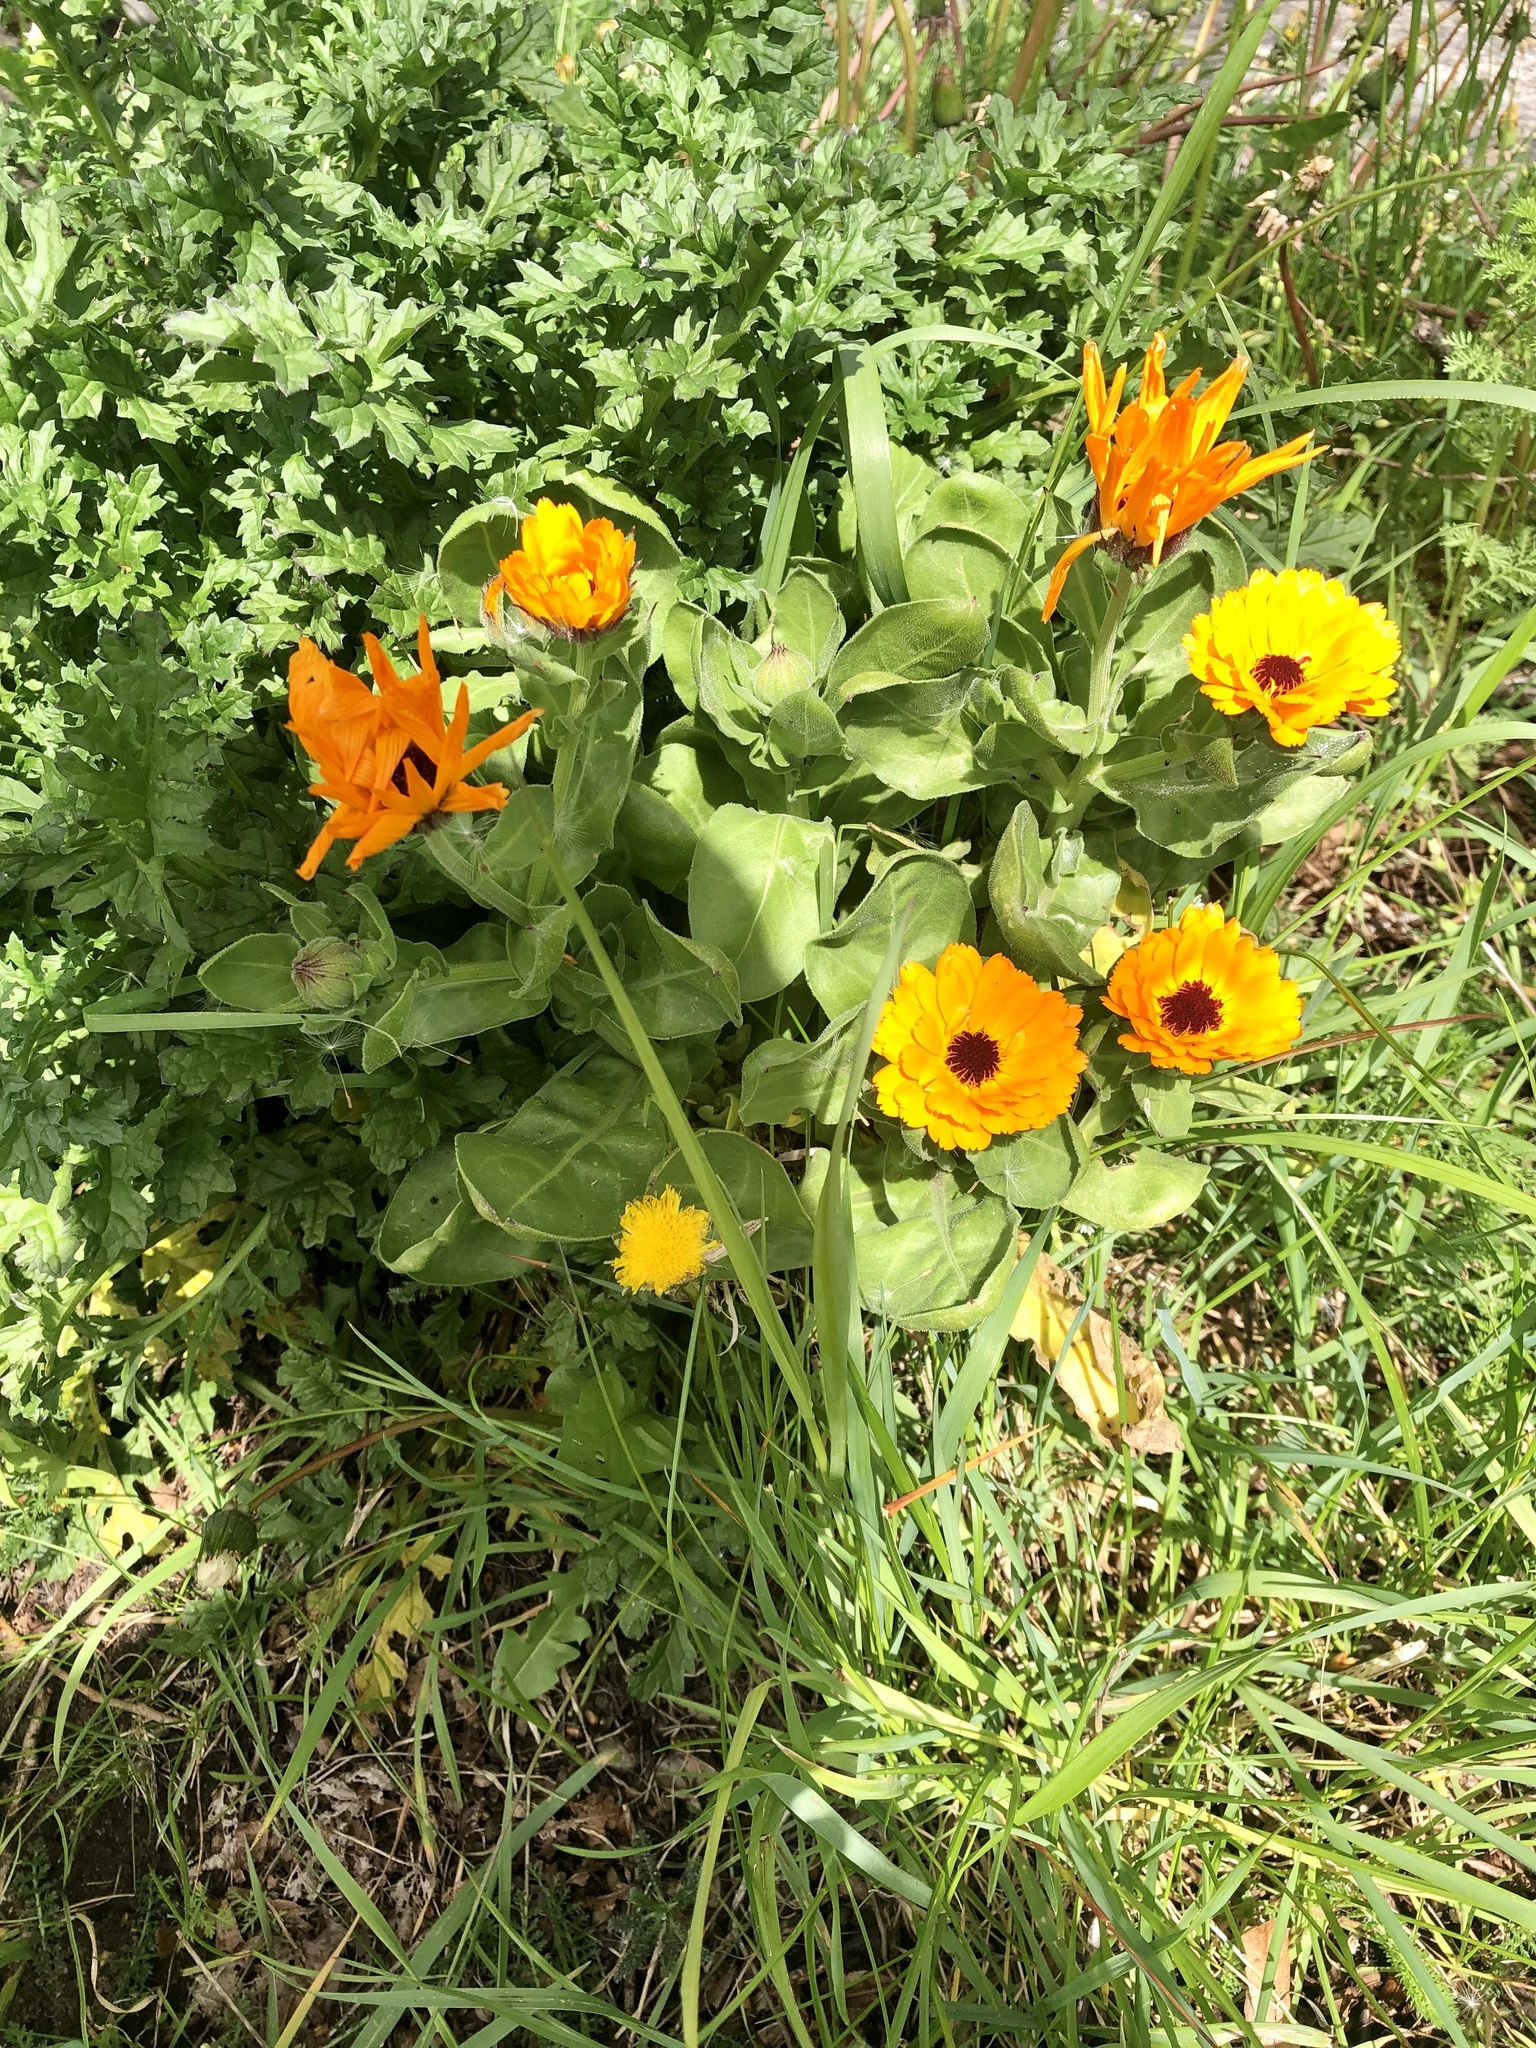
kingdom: Plantae
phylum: Tracheophyta
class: Magnoliopsida
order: Asterales
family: Asteraceae
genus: Calendula
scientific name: Calendula officinalis
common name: Pot marigold
